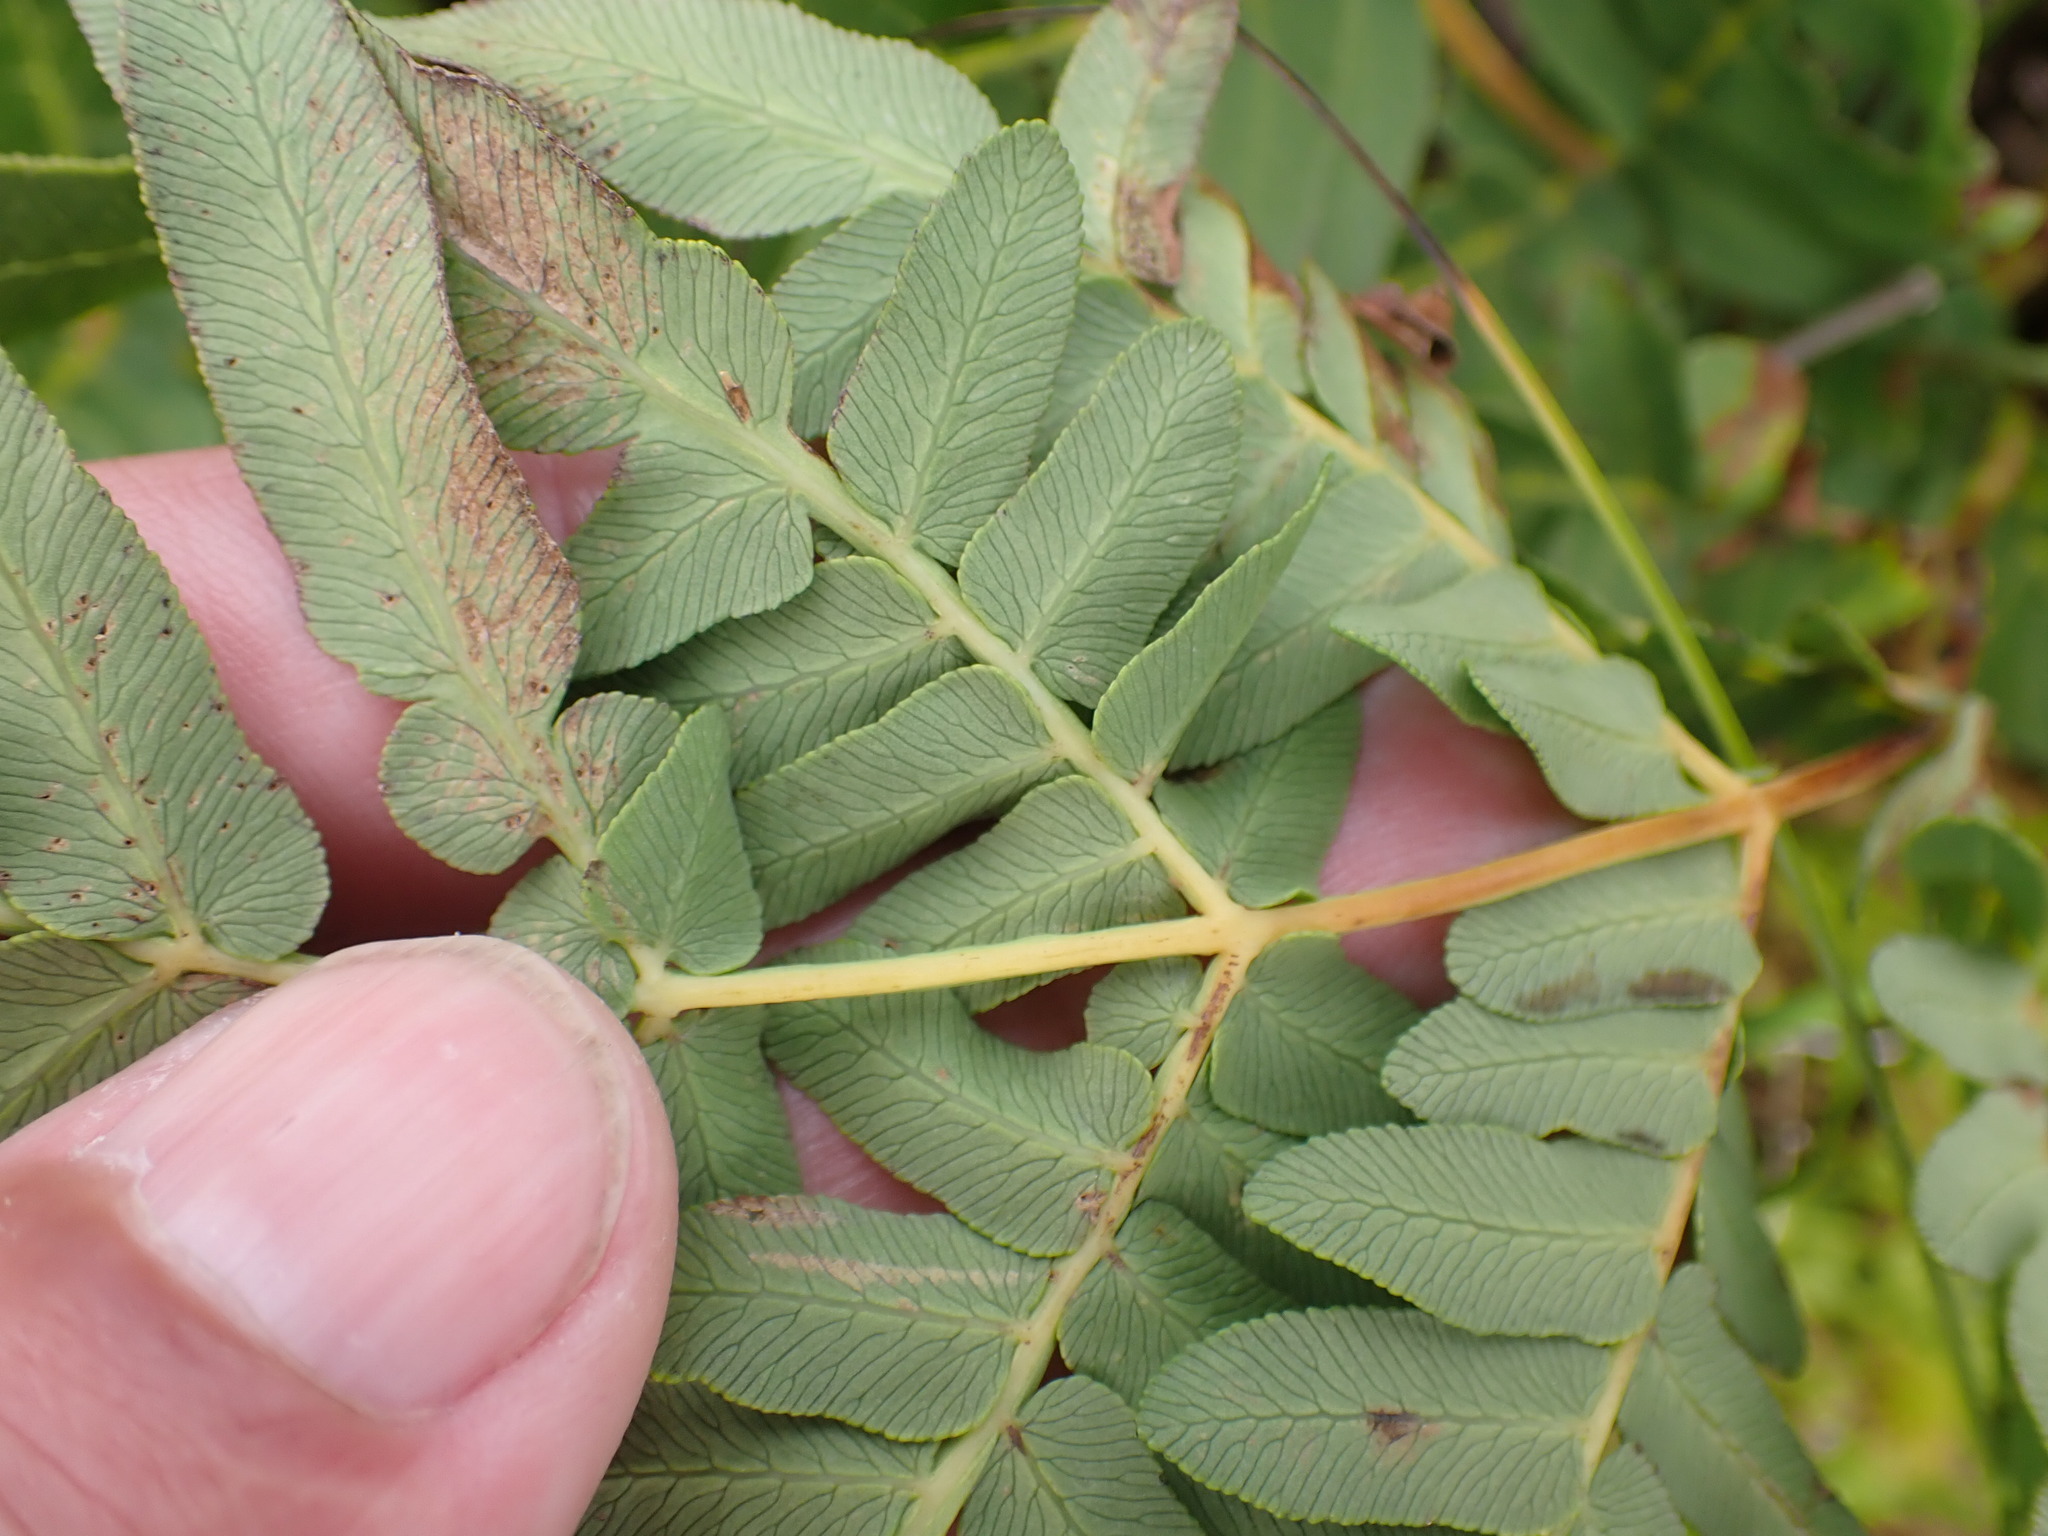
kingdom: Plantae
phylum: Tracheophyta
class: Polypodiopsida
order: Osmundales
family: Osmundaceae
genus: Osmunda
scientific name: Osmunda regalis
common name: Royal fern
